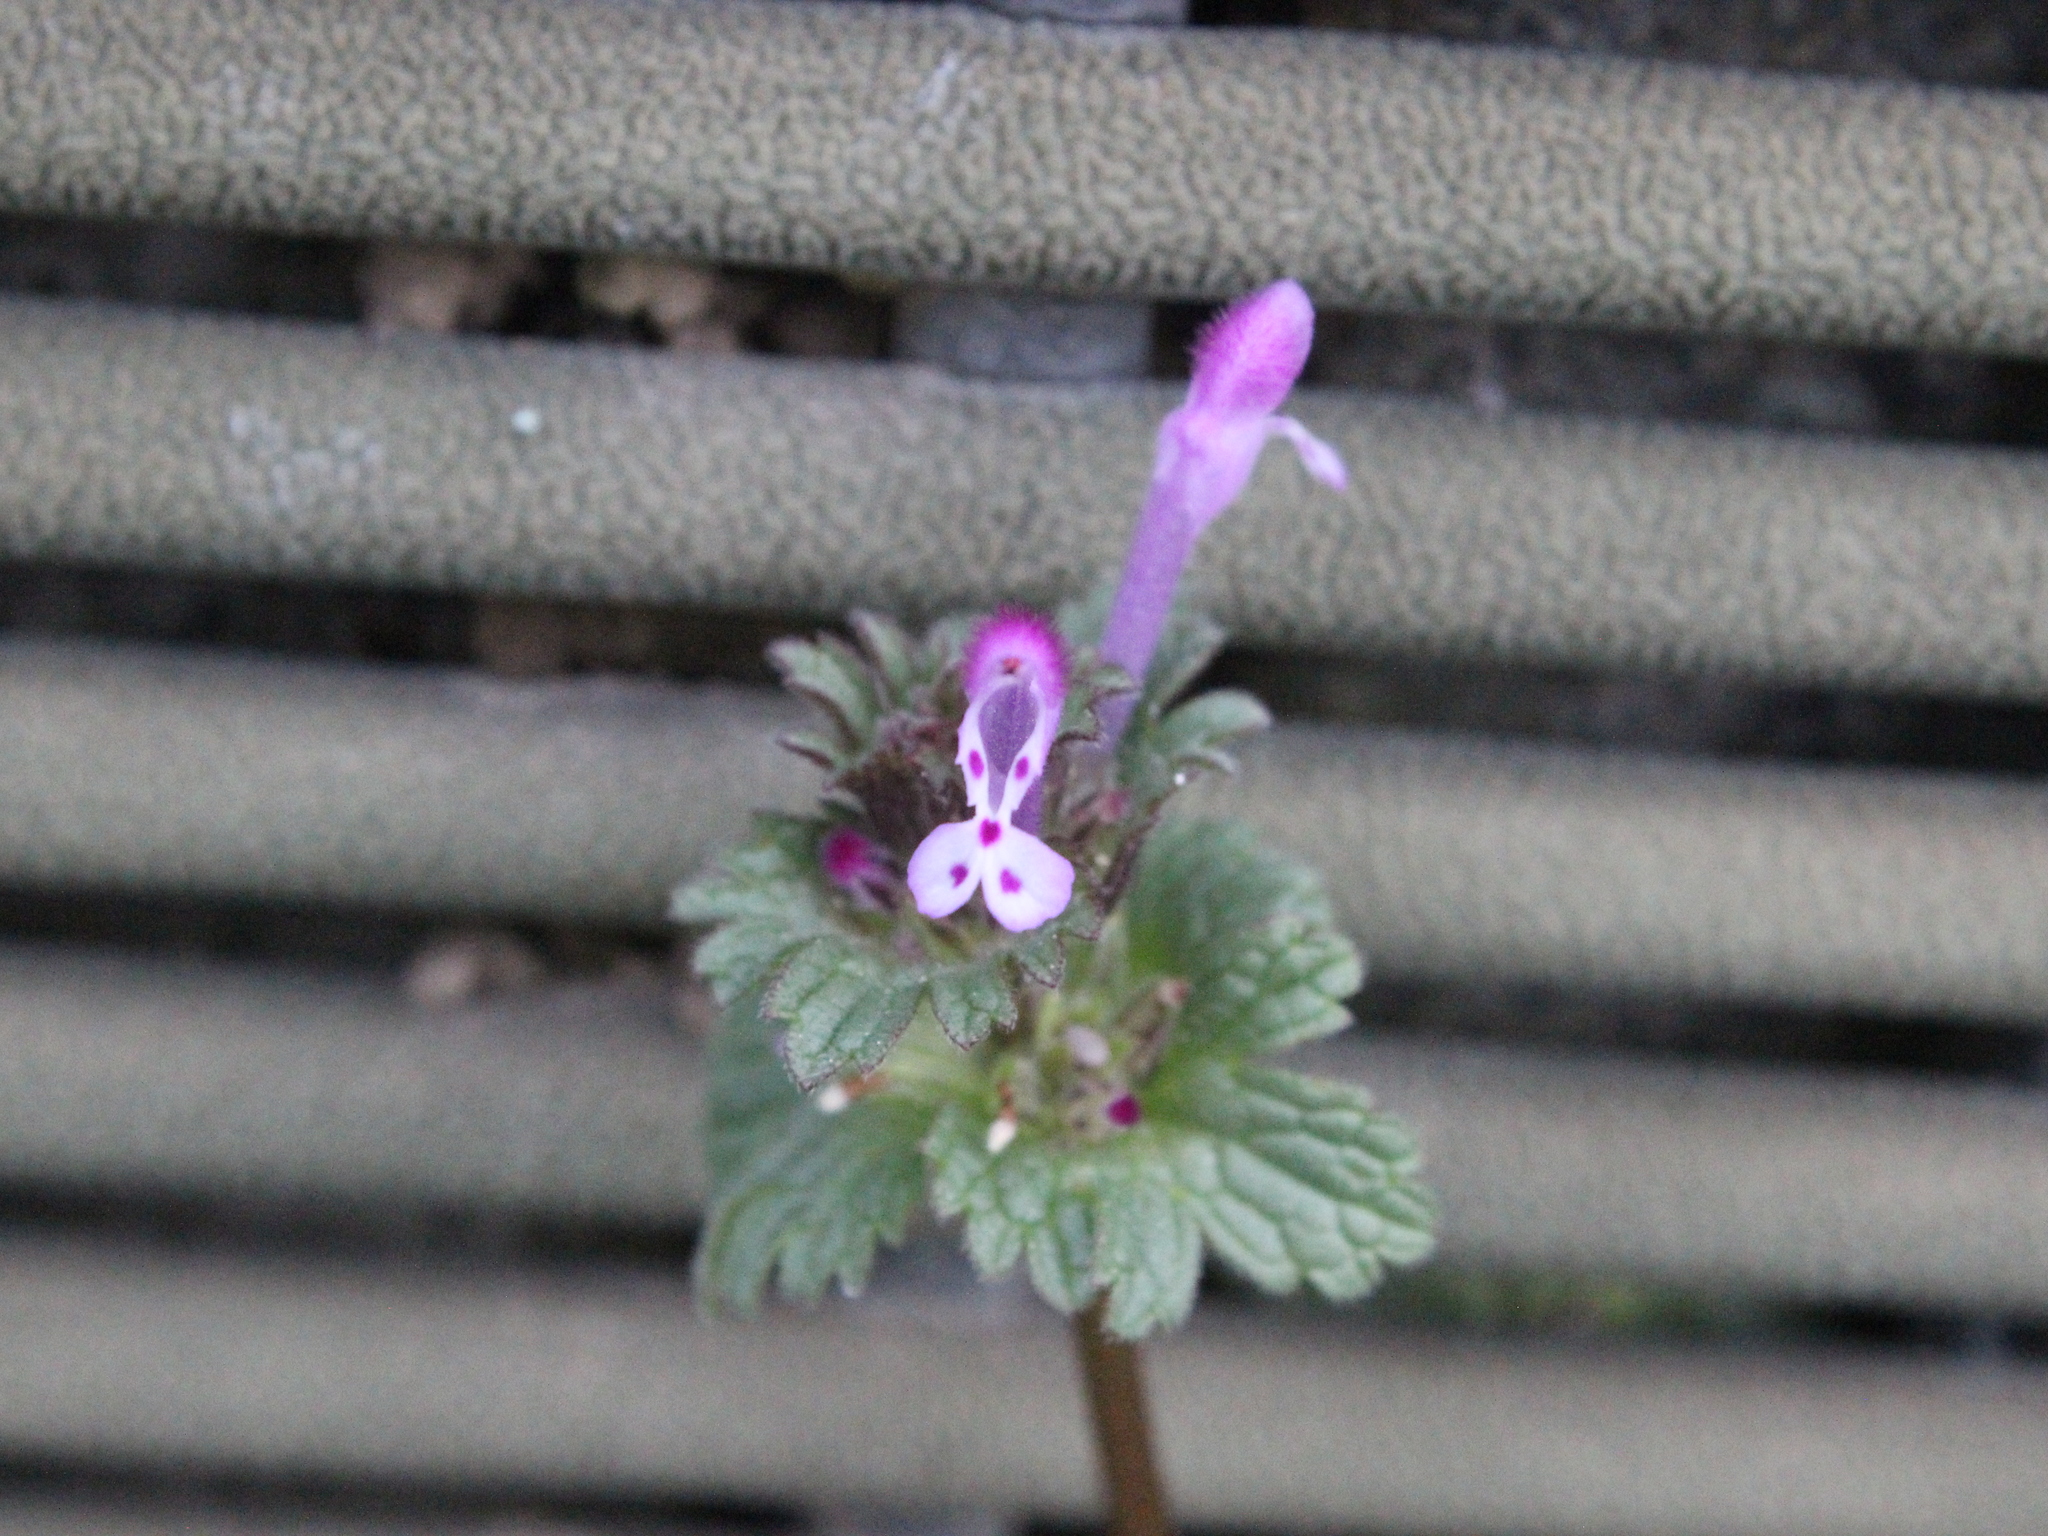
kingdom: Plantae
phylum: Tracheophyta
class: Magnoliopsida
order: Lamiales
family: Lamiaceae
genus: Lamium
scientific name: Lamium amplexicaule
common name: Henbit dead-nettle
